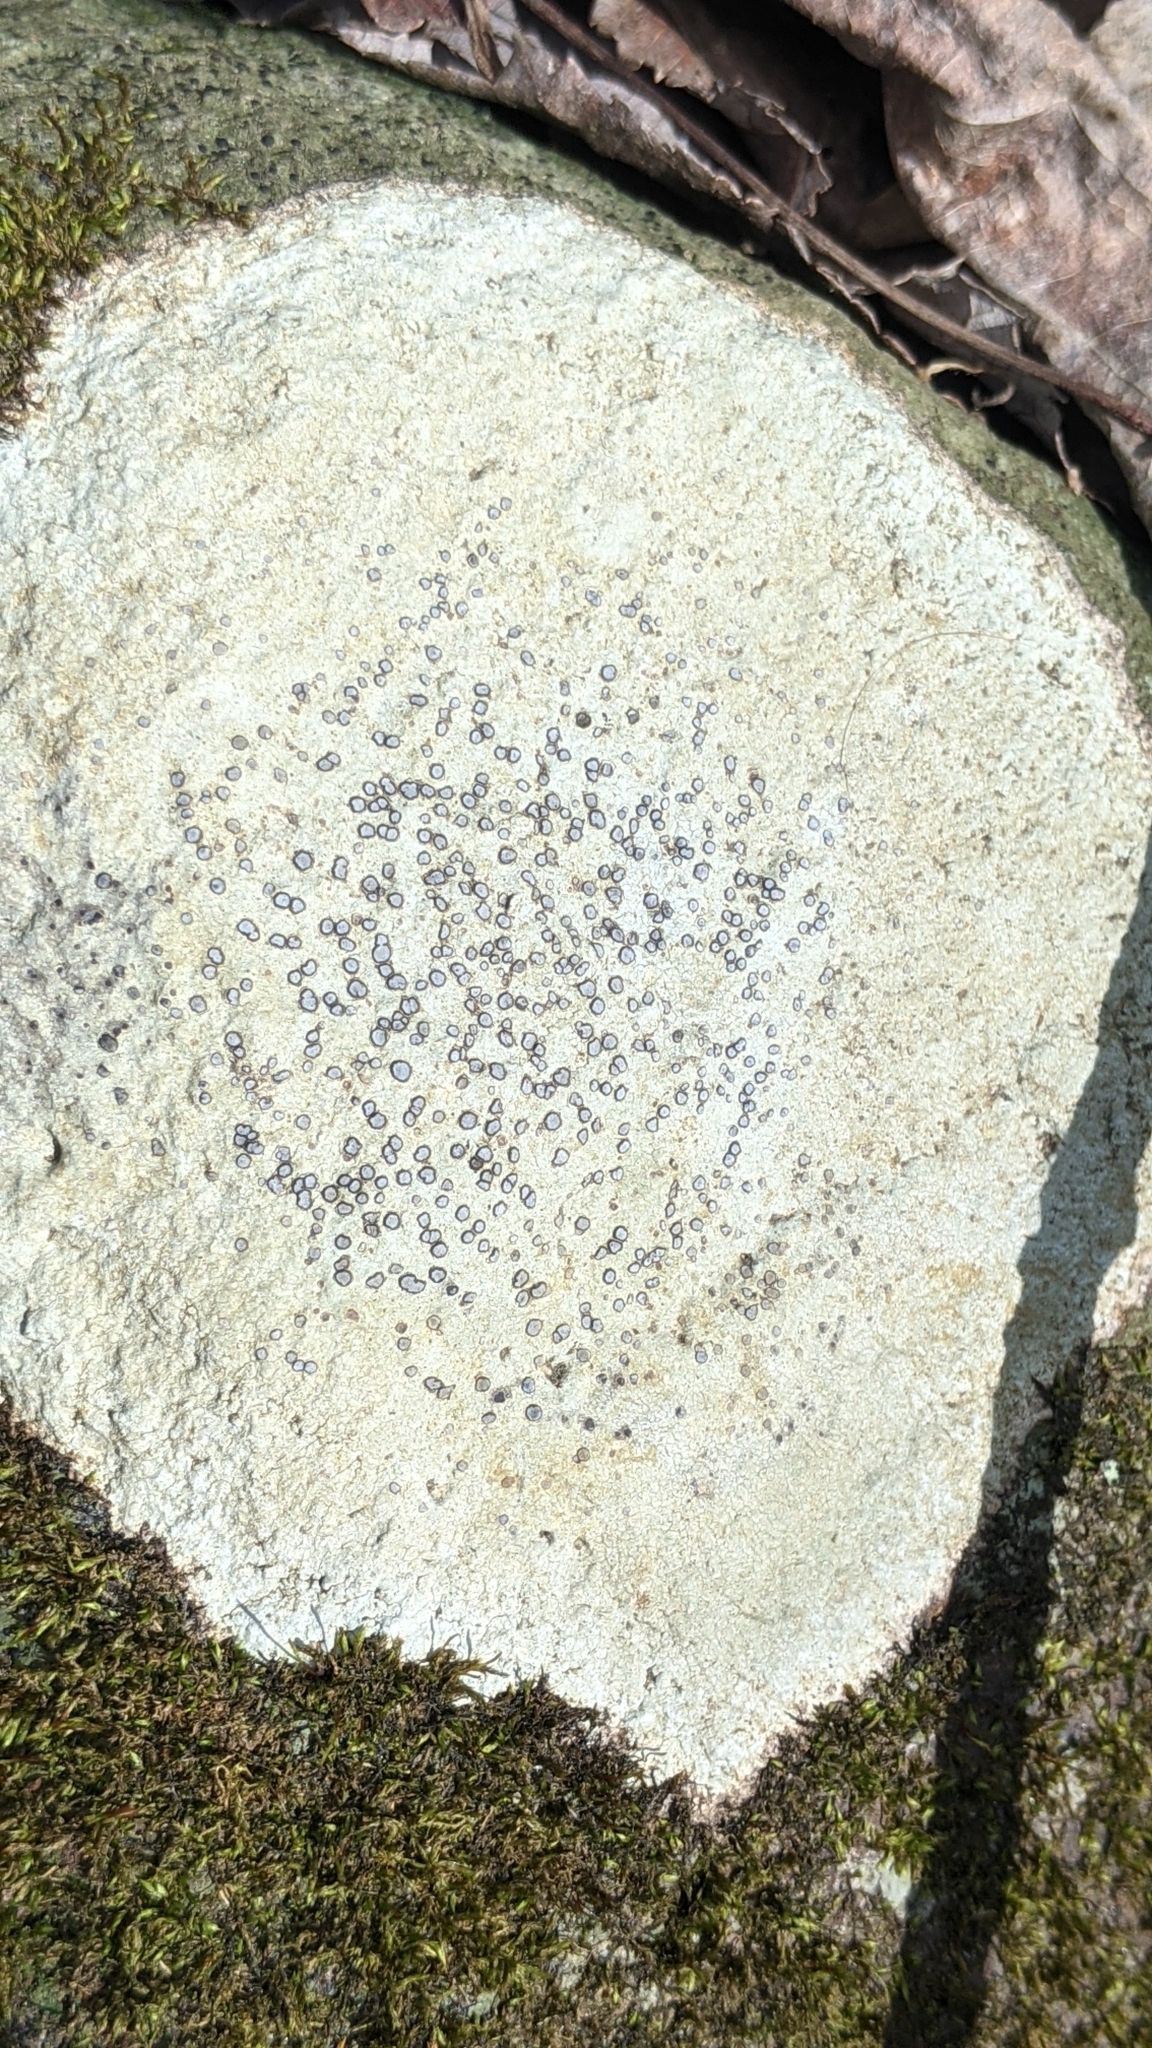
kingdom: Fungi
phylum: Ascomycota
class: Lecanoromycetes
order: Lecideales
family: Lecideaceae
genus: Porpidia
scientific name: Porpidia albocaerulescens
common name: Smokey-eyed boulder lichen
